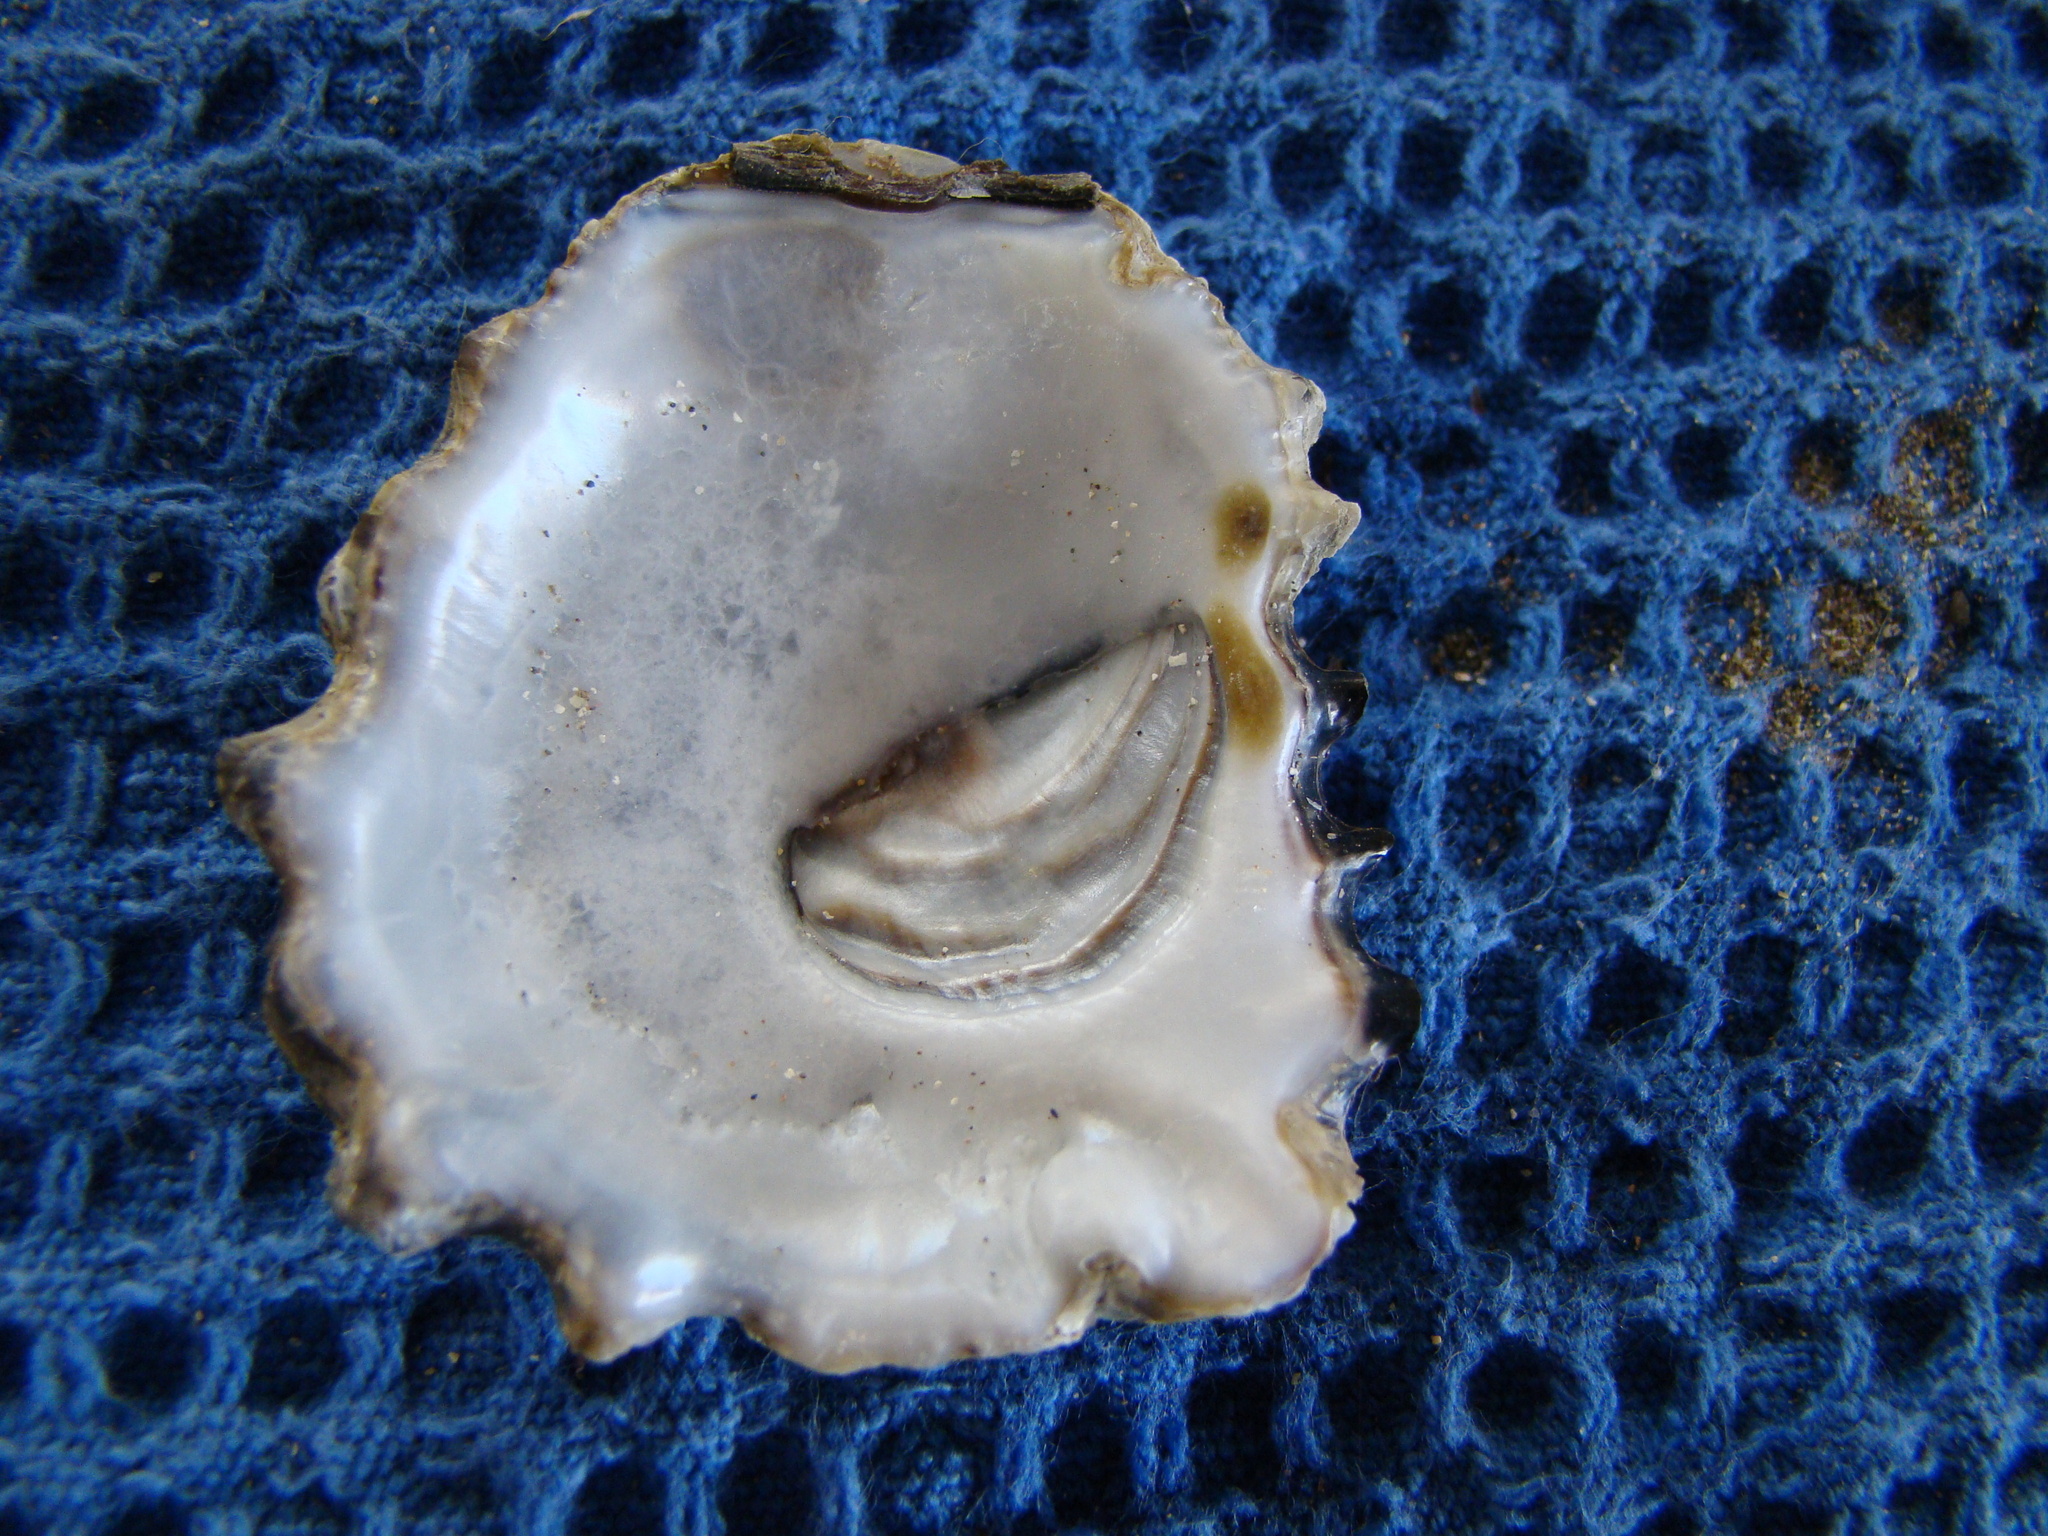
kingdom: Animalia
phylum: Mollusca
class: Bivalvia
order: Ostreida
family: Ostreidae
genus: Saccostrea
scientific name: Saccostrea glomerata
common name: Sydney cupped oyster
